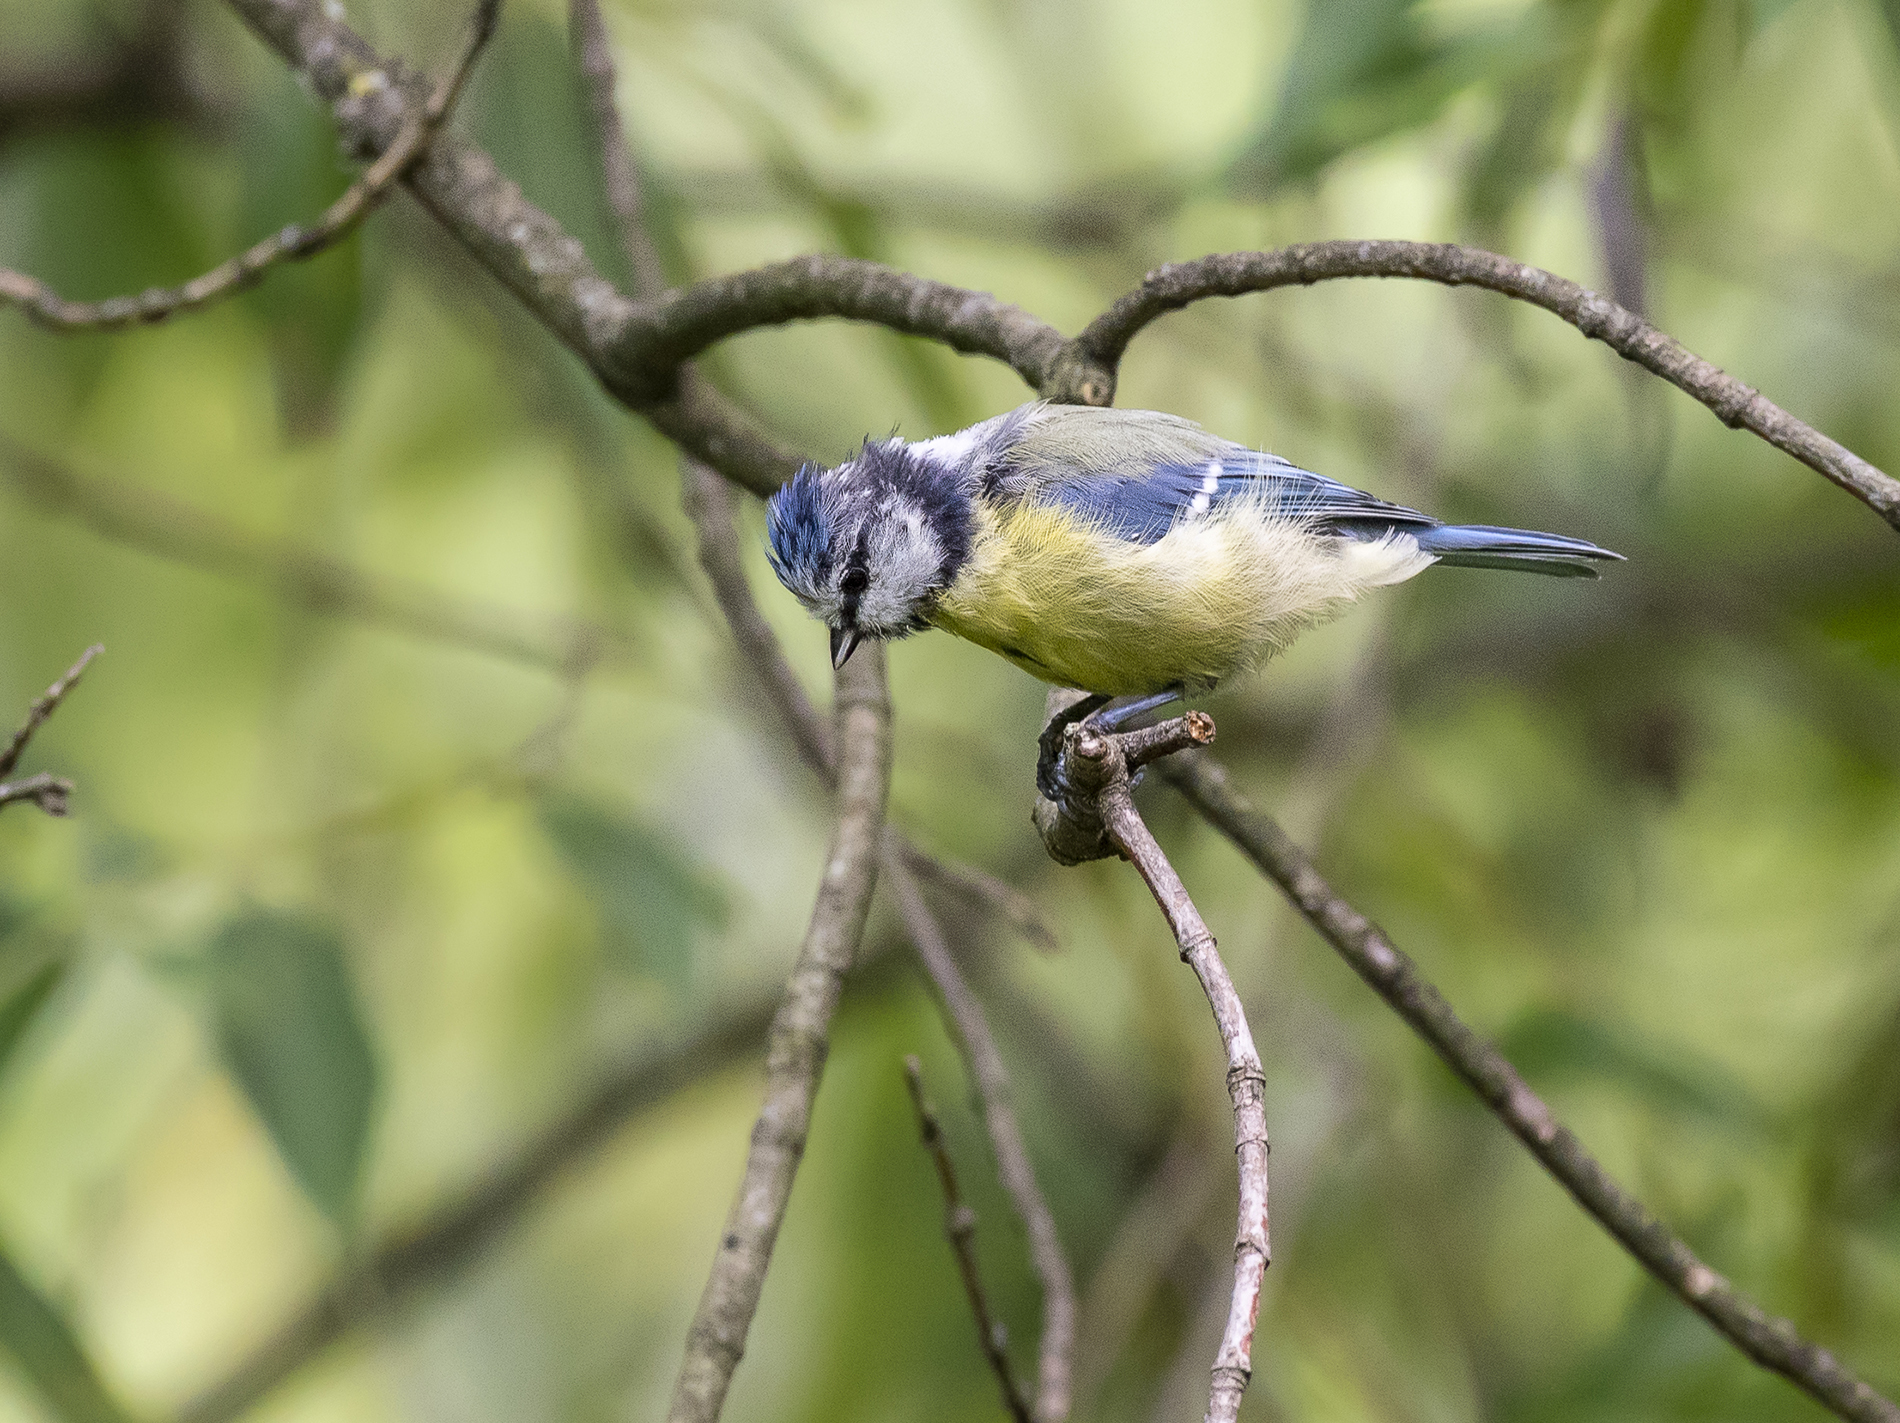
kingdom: Animalia
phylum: Chordata
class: Aves
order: Passeriformes
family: Paridae
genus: Cyanistes
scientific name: Cyanistes caeruleus
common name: Eurasian blue tit
